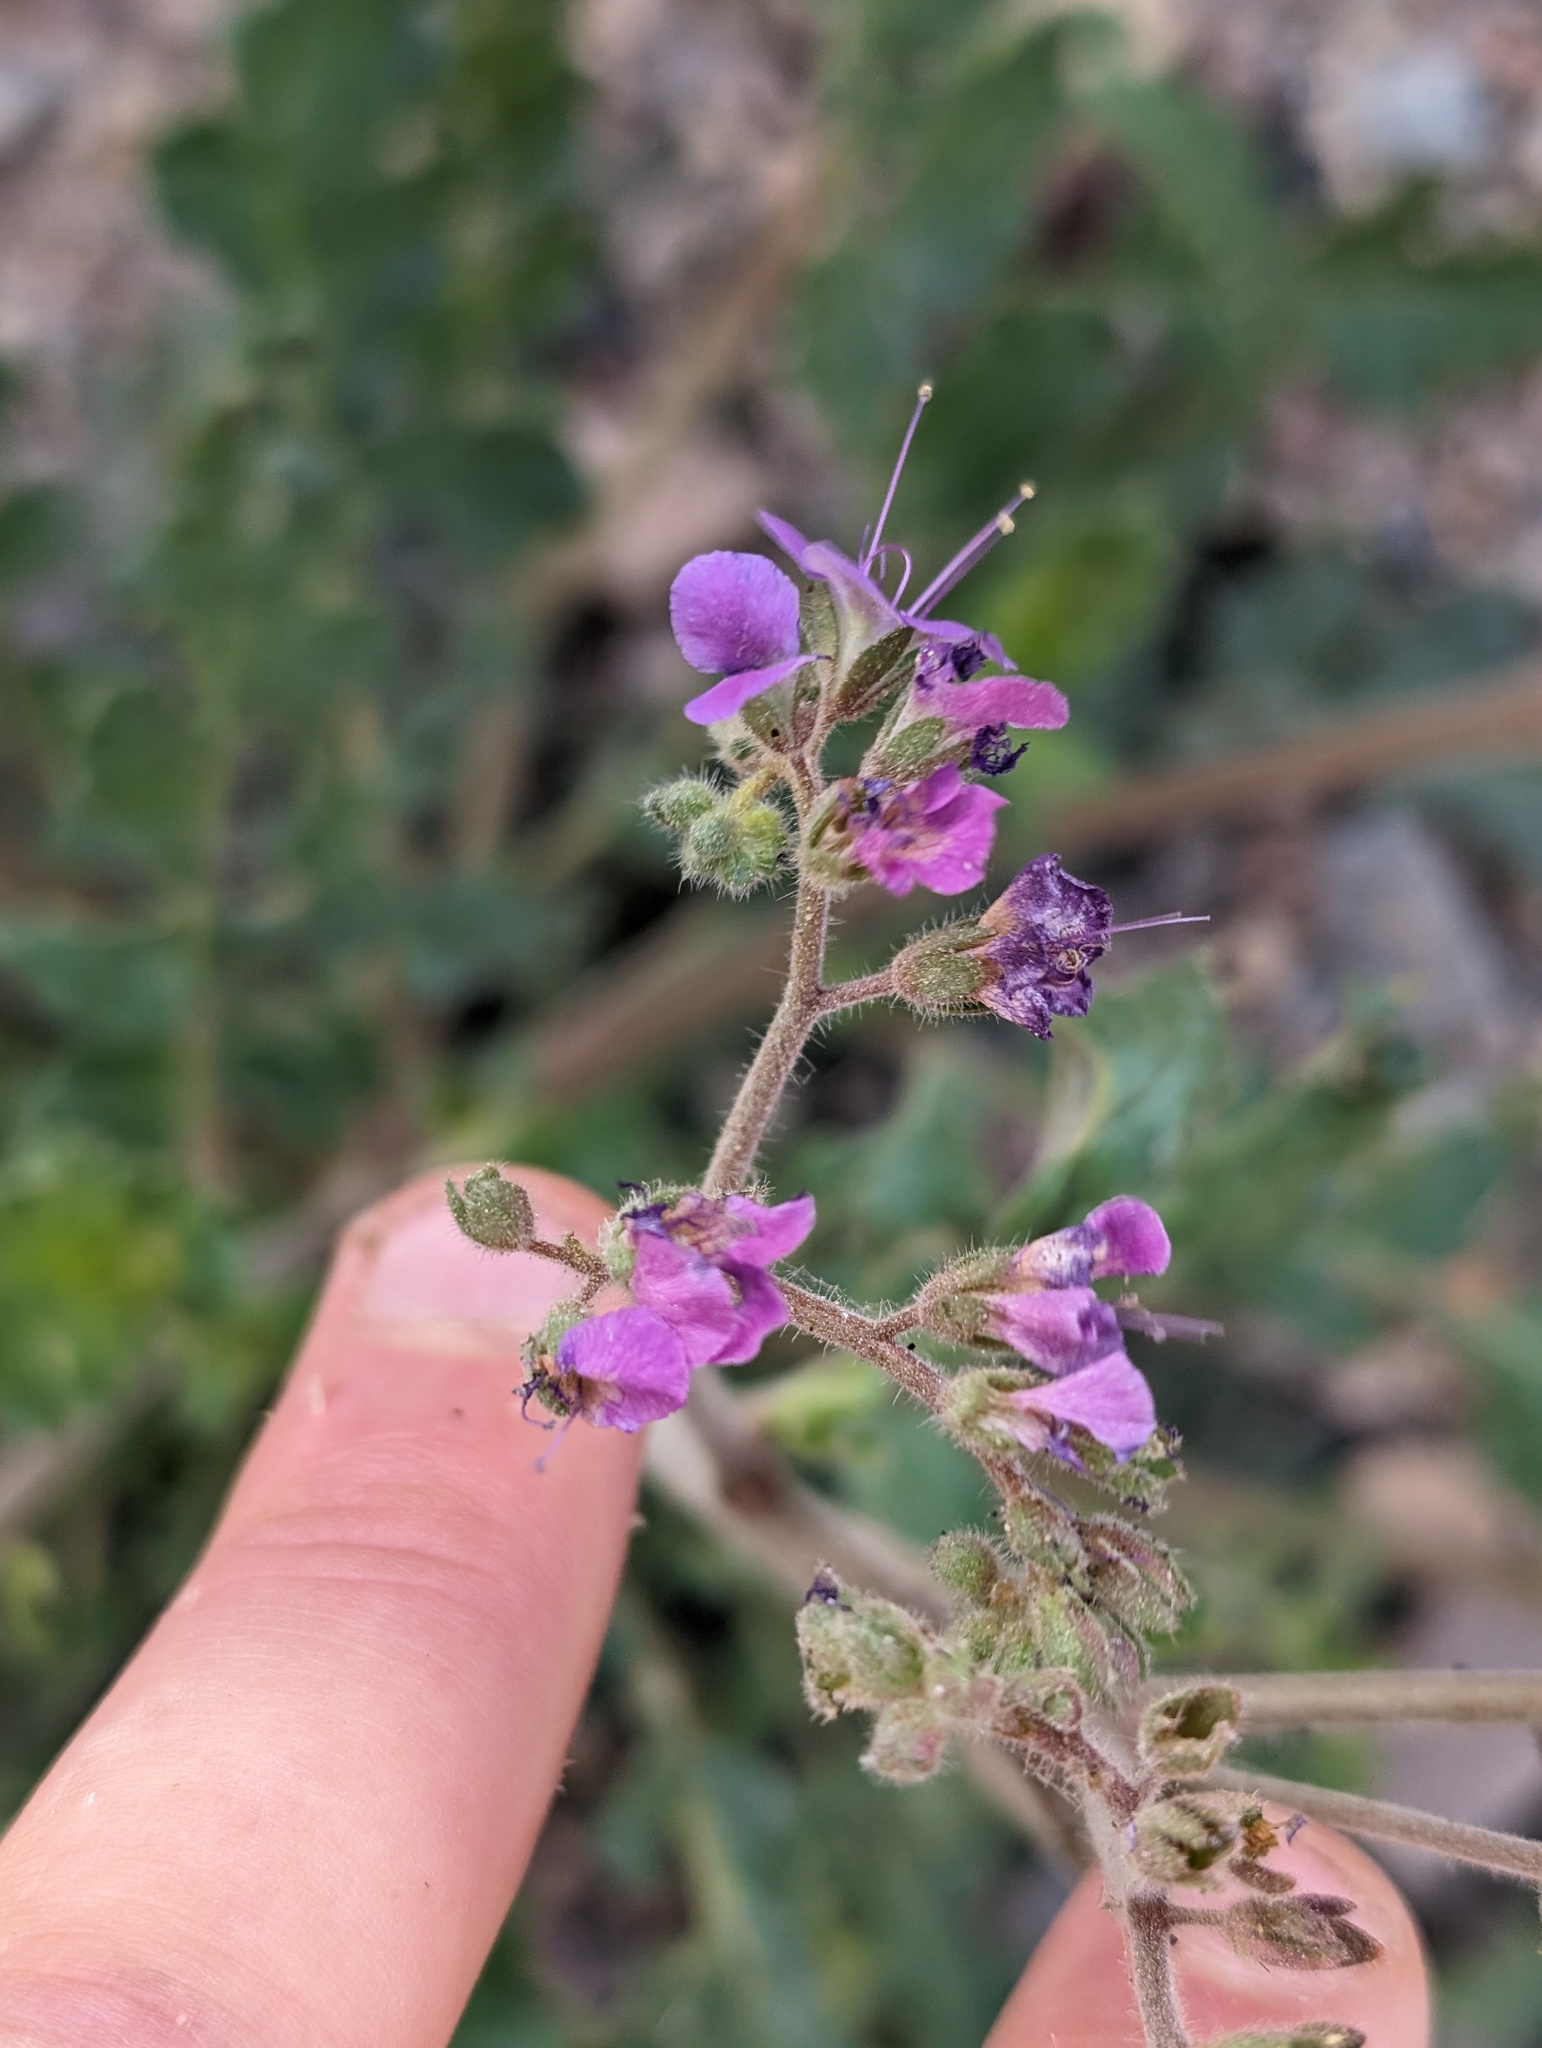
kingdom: Plantae
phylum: Tracheophyta
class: Magnoliopsida
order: Boraginales
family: Hydrophyllaceae
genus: Phacelia
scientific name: Phacelia crenulata
